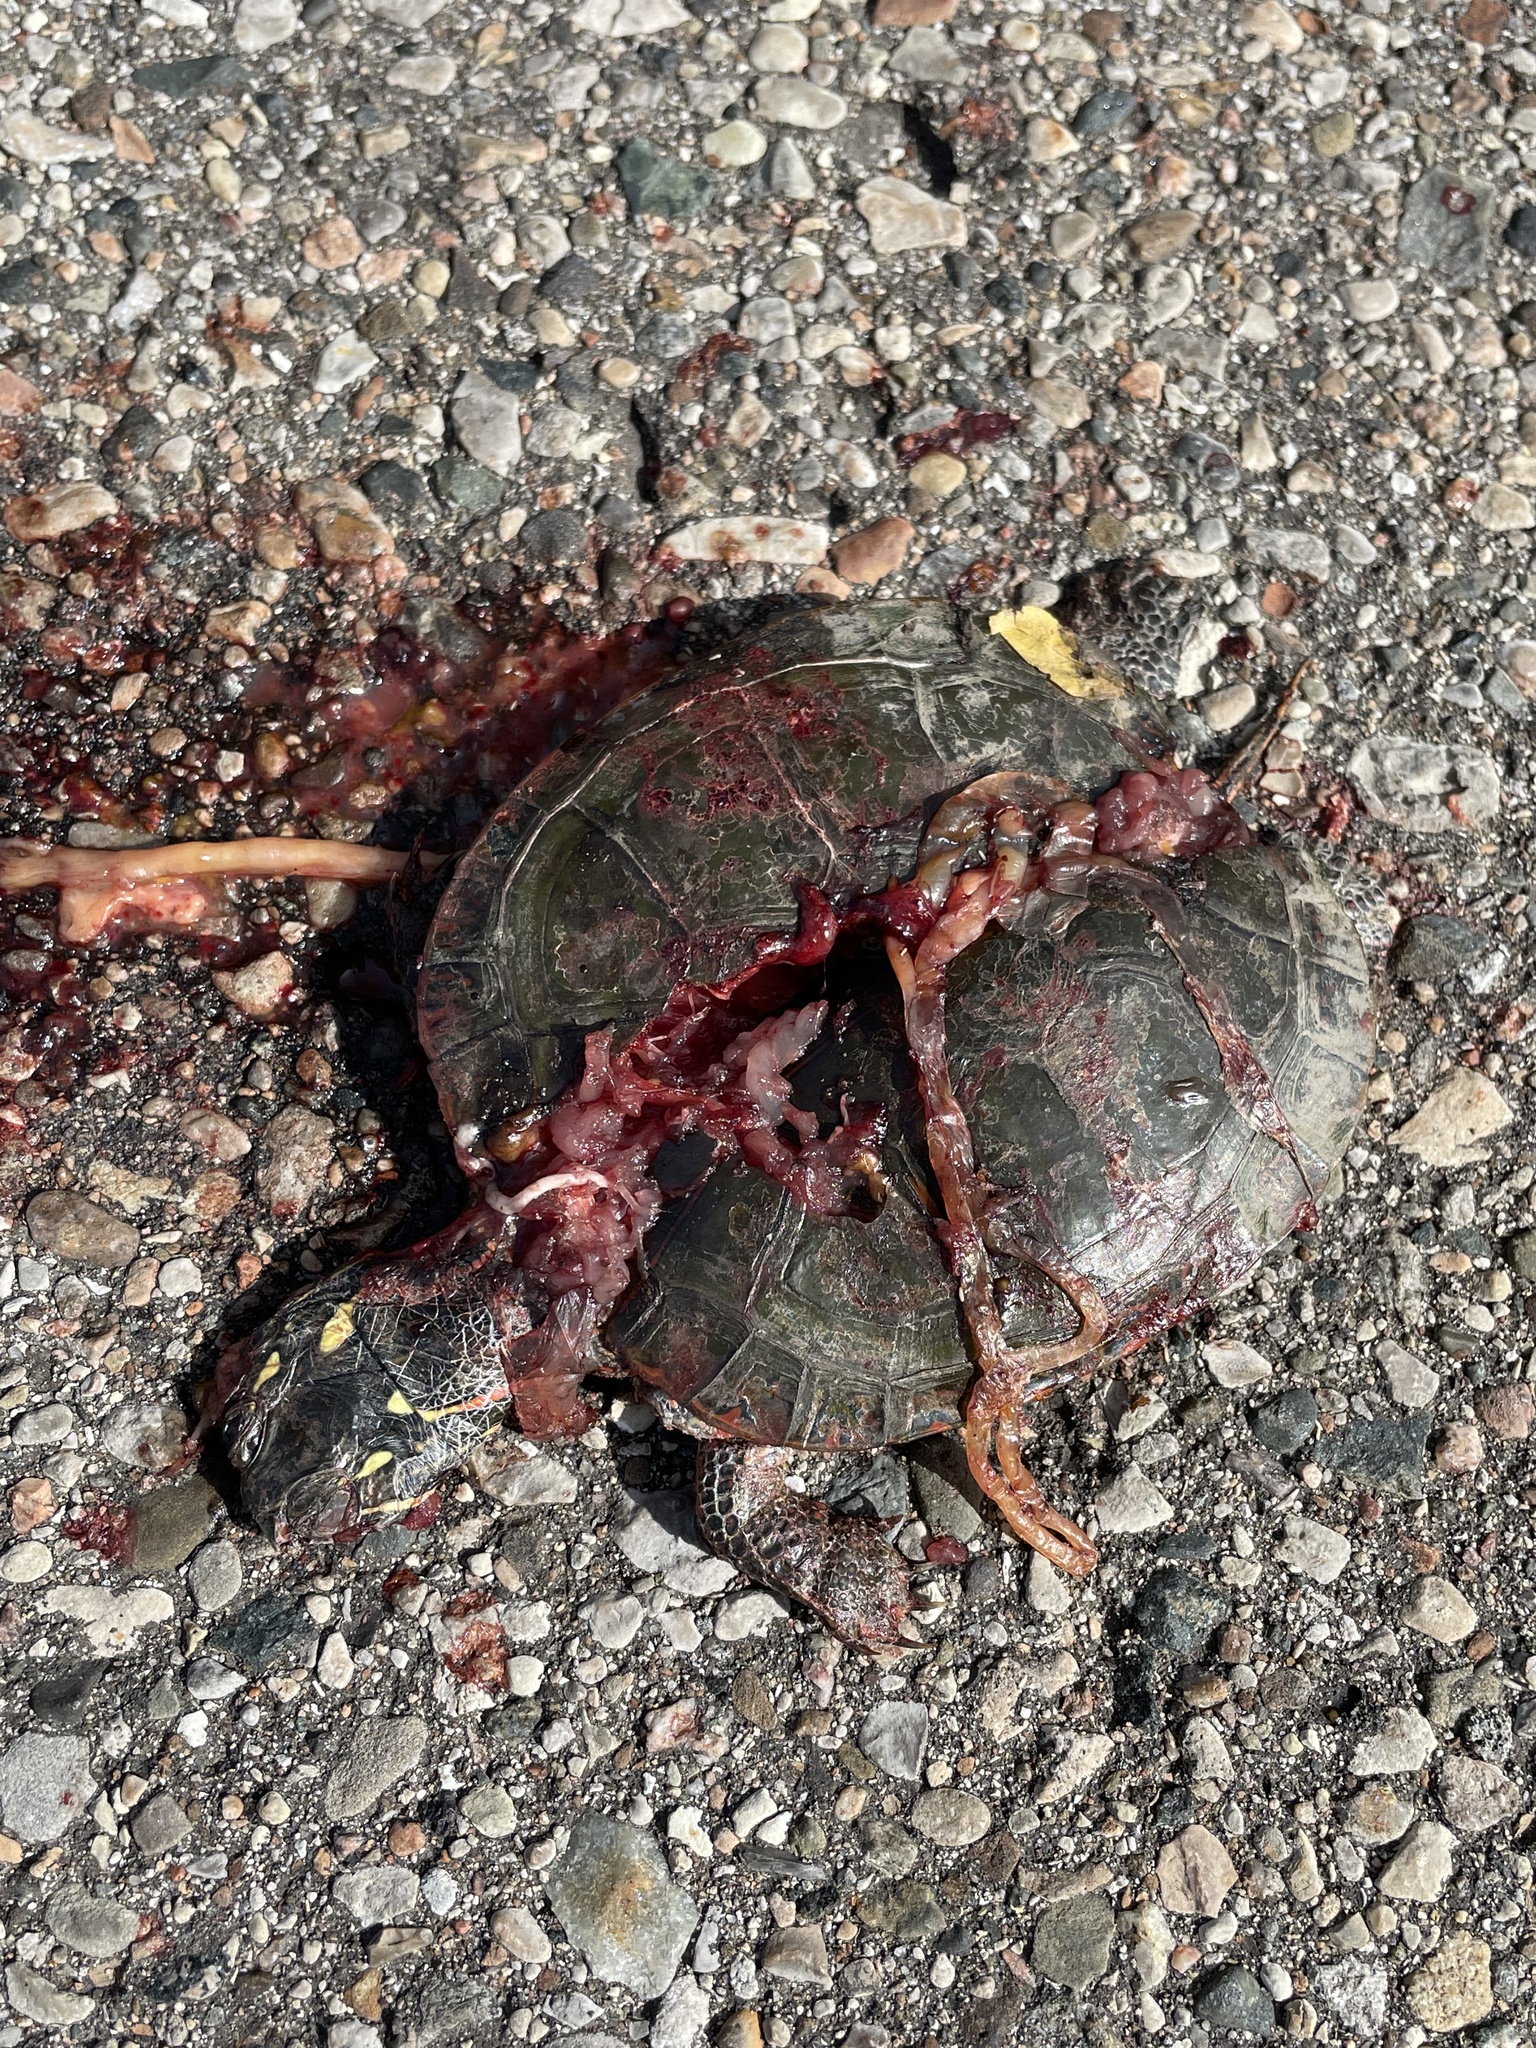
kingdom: Animalia
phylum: Chordata
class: Testudines
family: Emydidae
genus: Chrysemys
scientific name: Chrysemys picta
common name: Painted turtle
